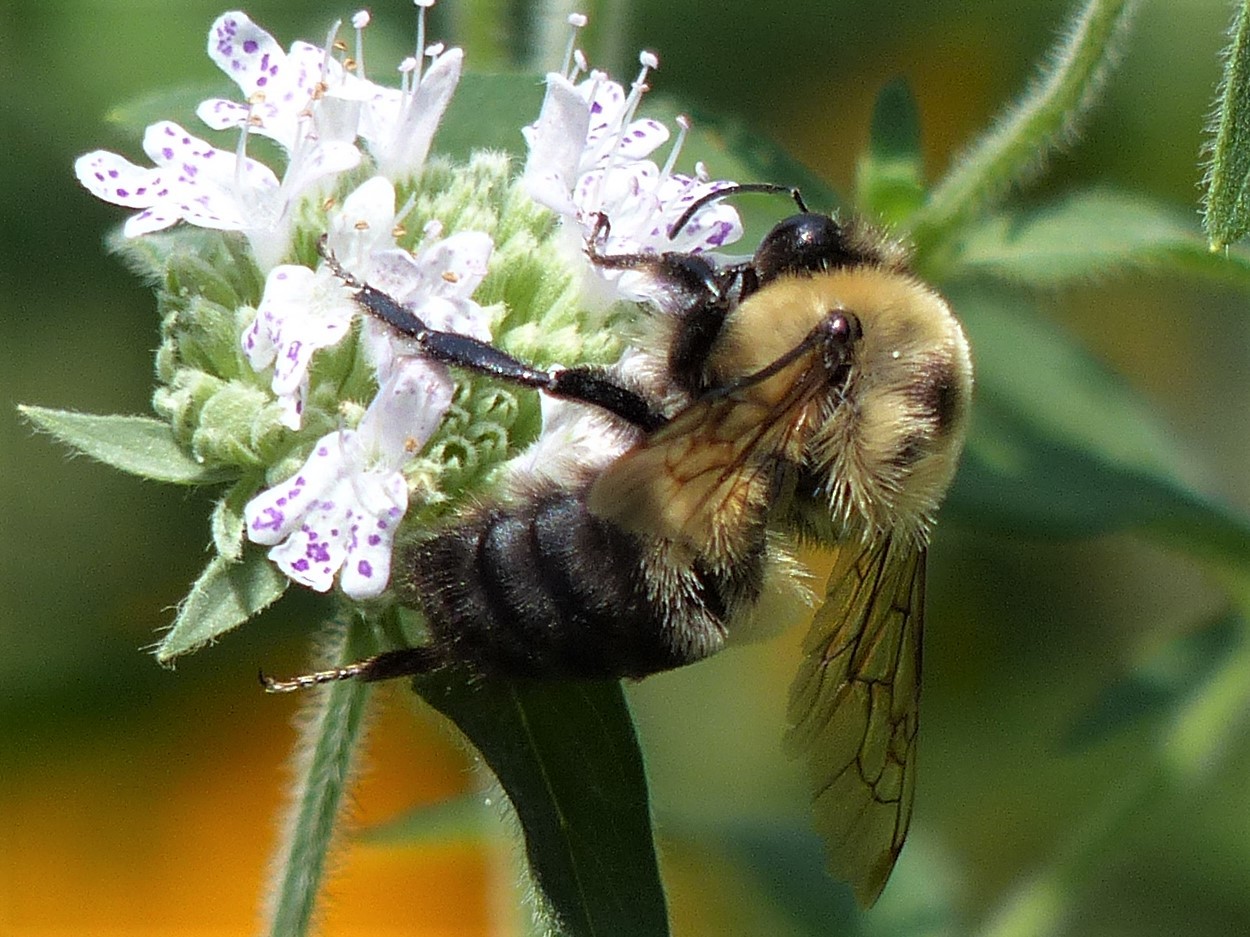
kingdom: Animalia
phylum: Arthropoda
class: Insecta
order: Hymenoptera
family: Apidae
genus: Bombus
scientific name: Bombus griseocollis
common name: Brown-belted bumble bee
